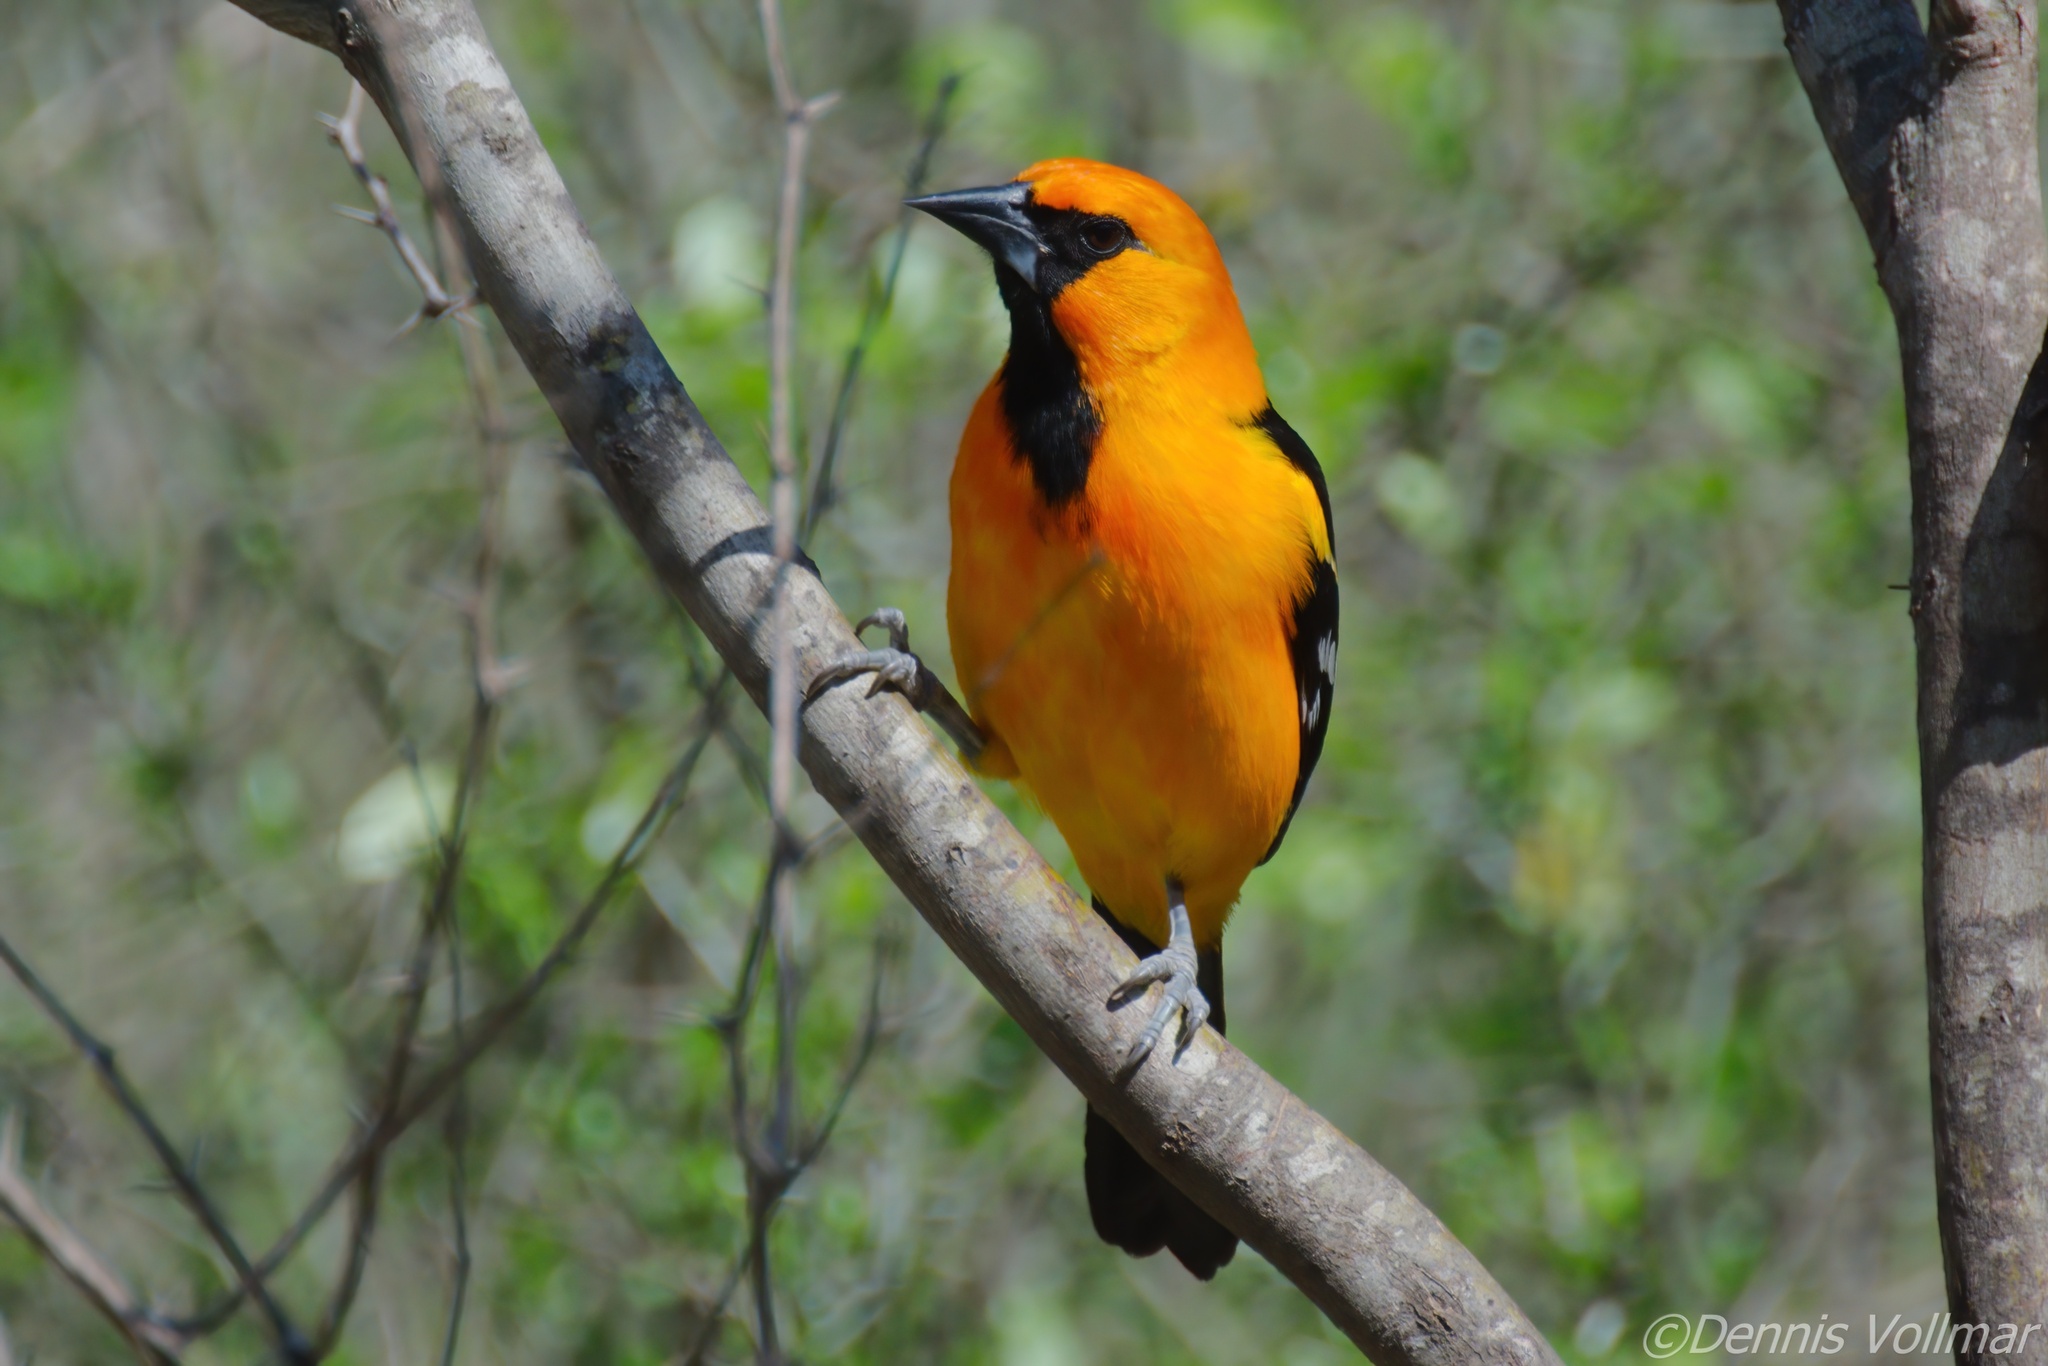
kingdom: Animalia
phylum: Chordata
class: Aves
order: Passeriformes
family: Icteridae
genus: Icterus
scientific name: Icterus gularis
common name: Altamira oriole
